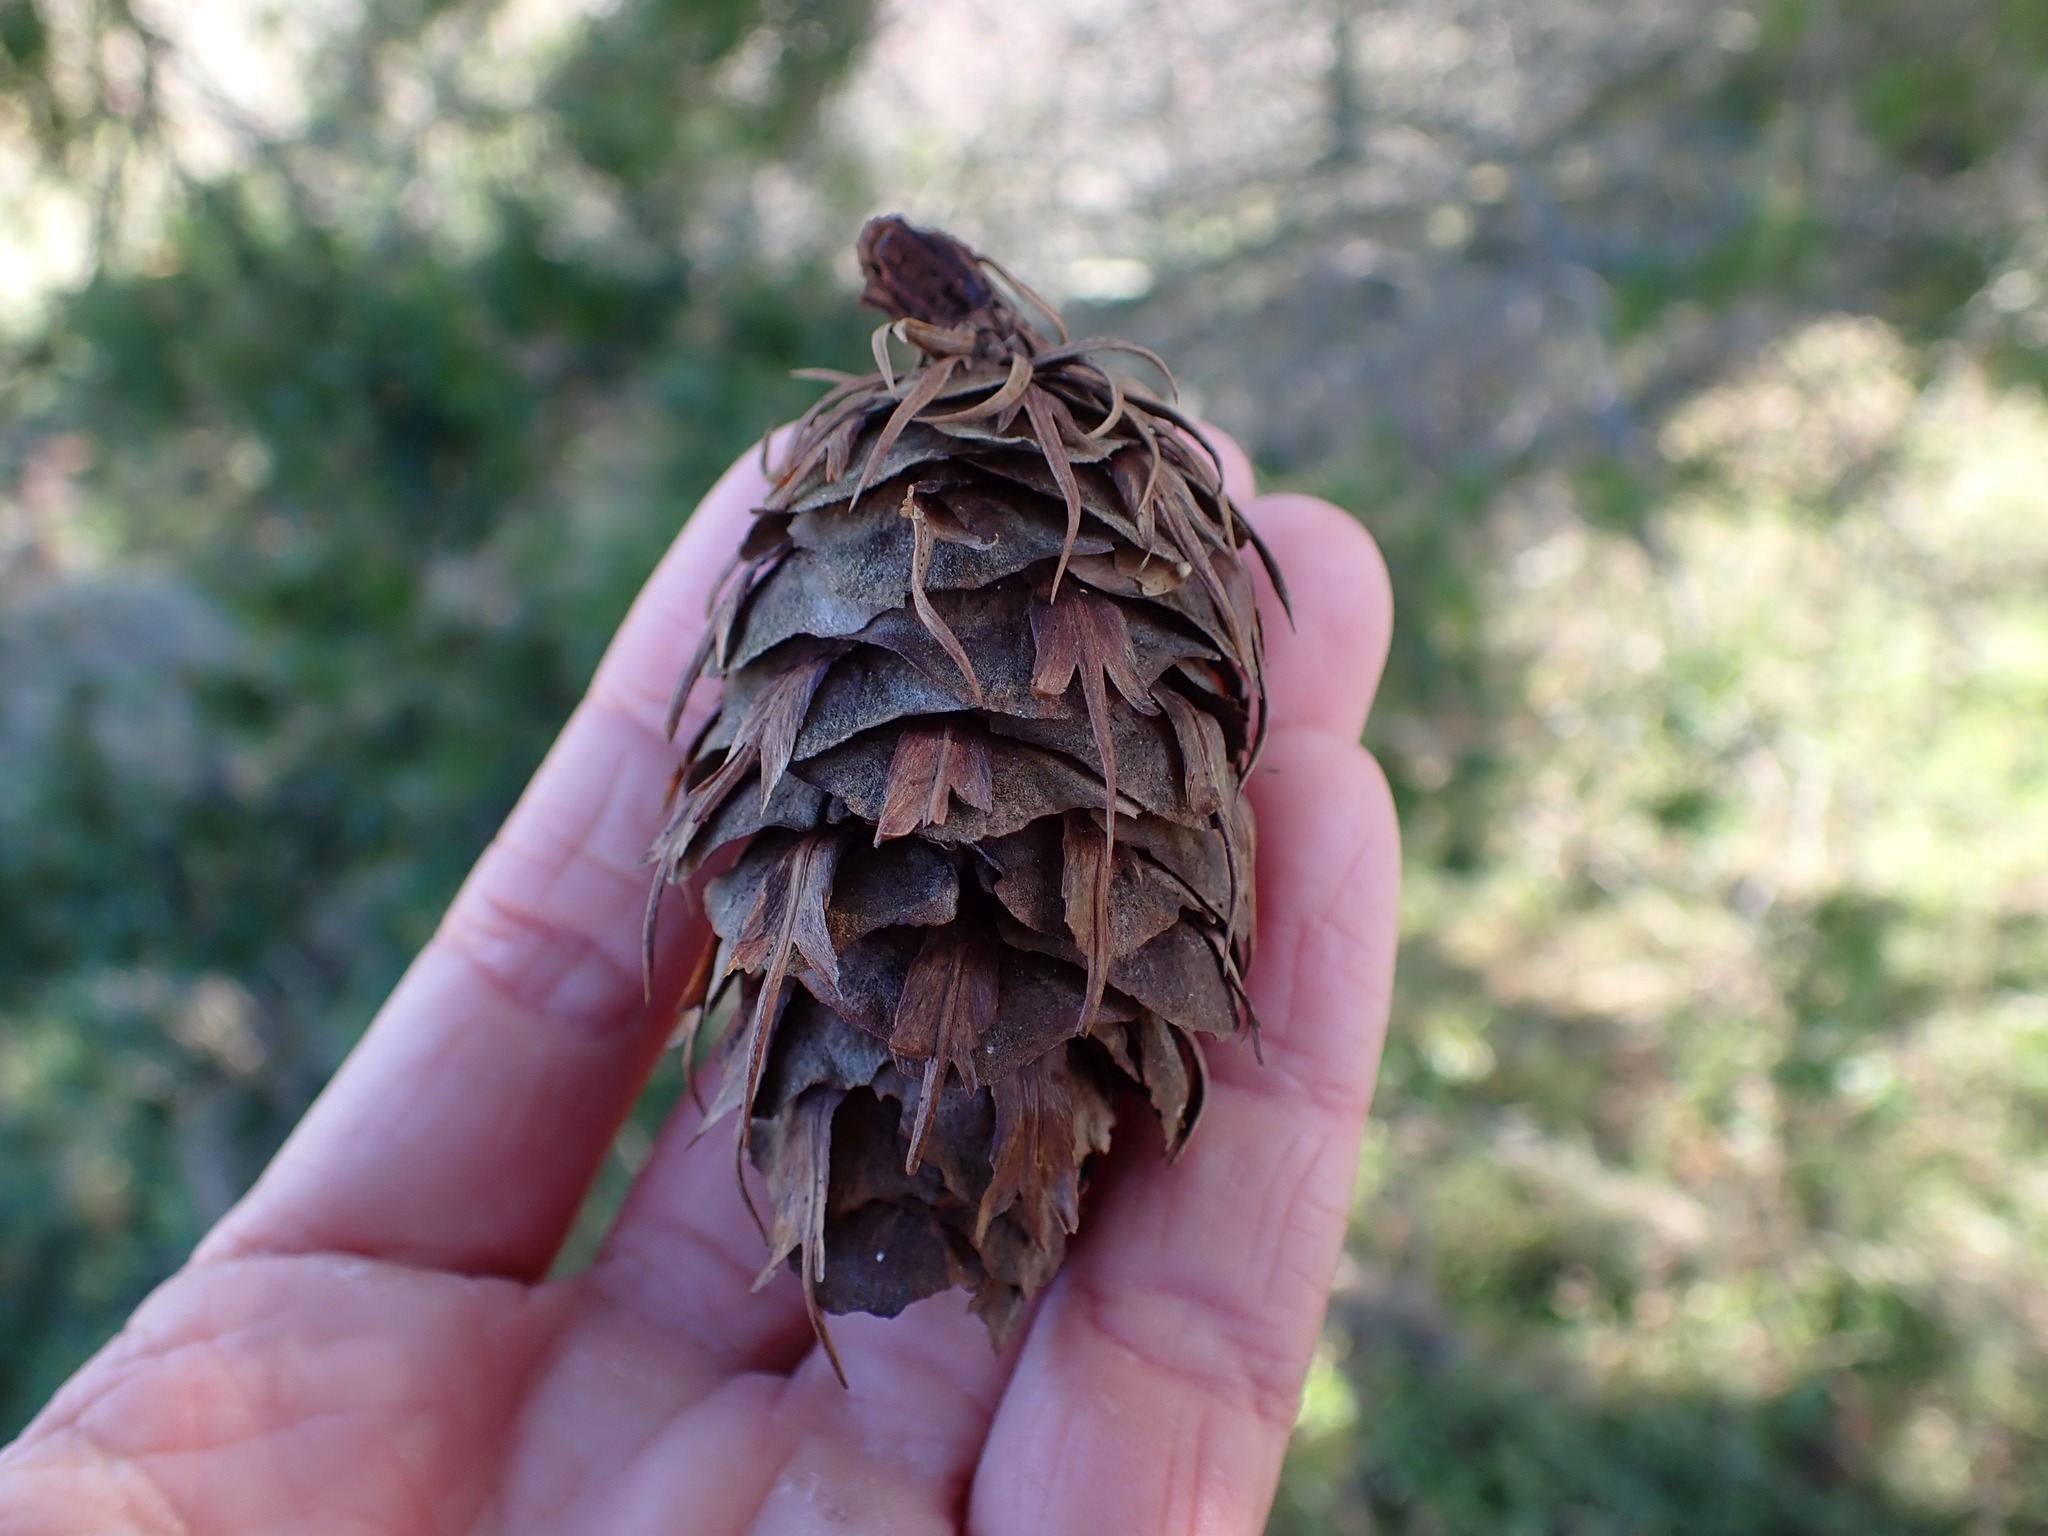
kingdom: Plantae
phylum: Tracheophyta
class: Pinopsida
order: Pinales
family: Pinaceae
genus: Pseudotsuga
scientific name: Pseudotsuga menziesii
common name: Douglas fir
